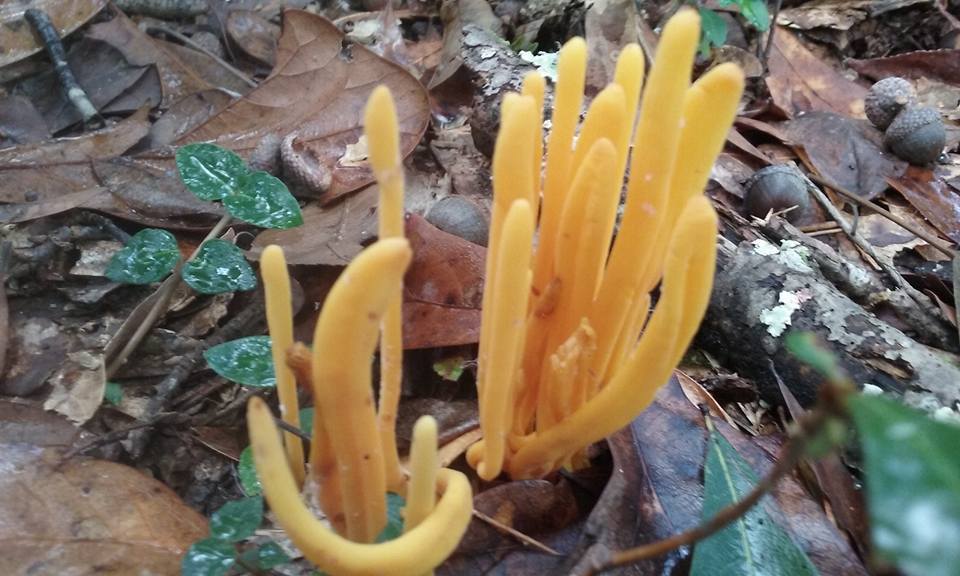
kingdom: Fungi
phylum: Basidiomycota
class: Agaricomycetes
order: Agaricales
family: Clavariaceae
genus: Clavulinopsis
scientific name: Clavulinopsis fusiformis
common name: Golden spindles
